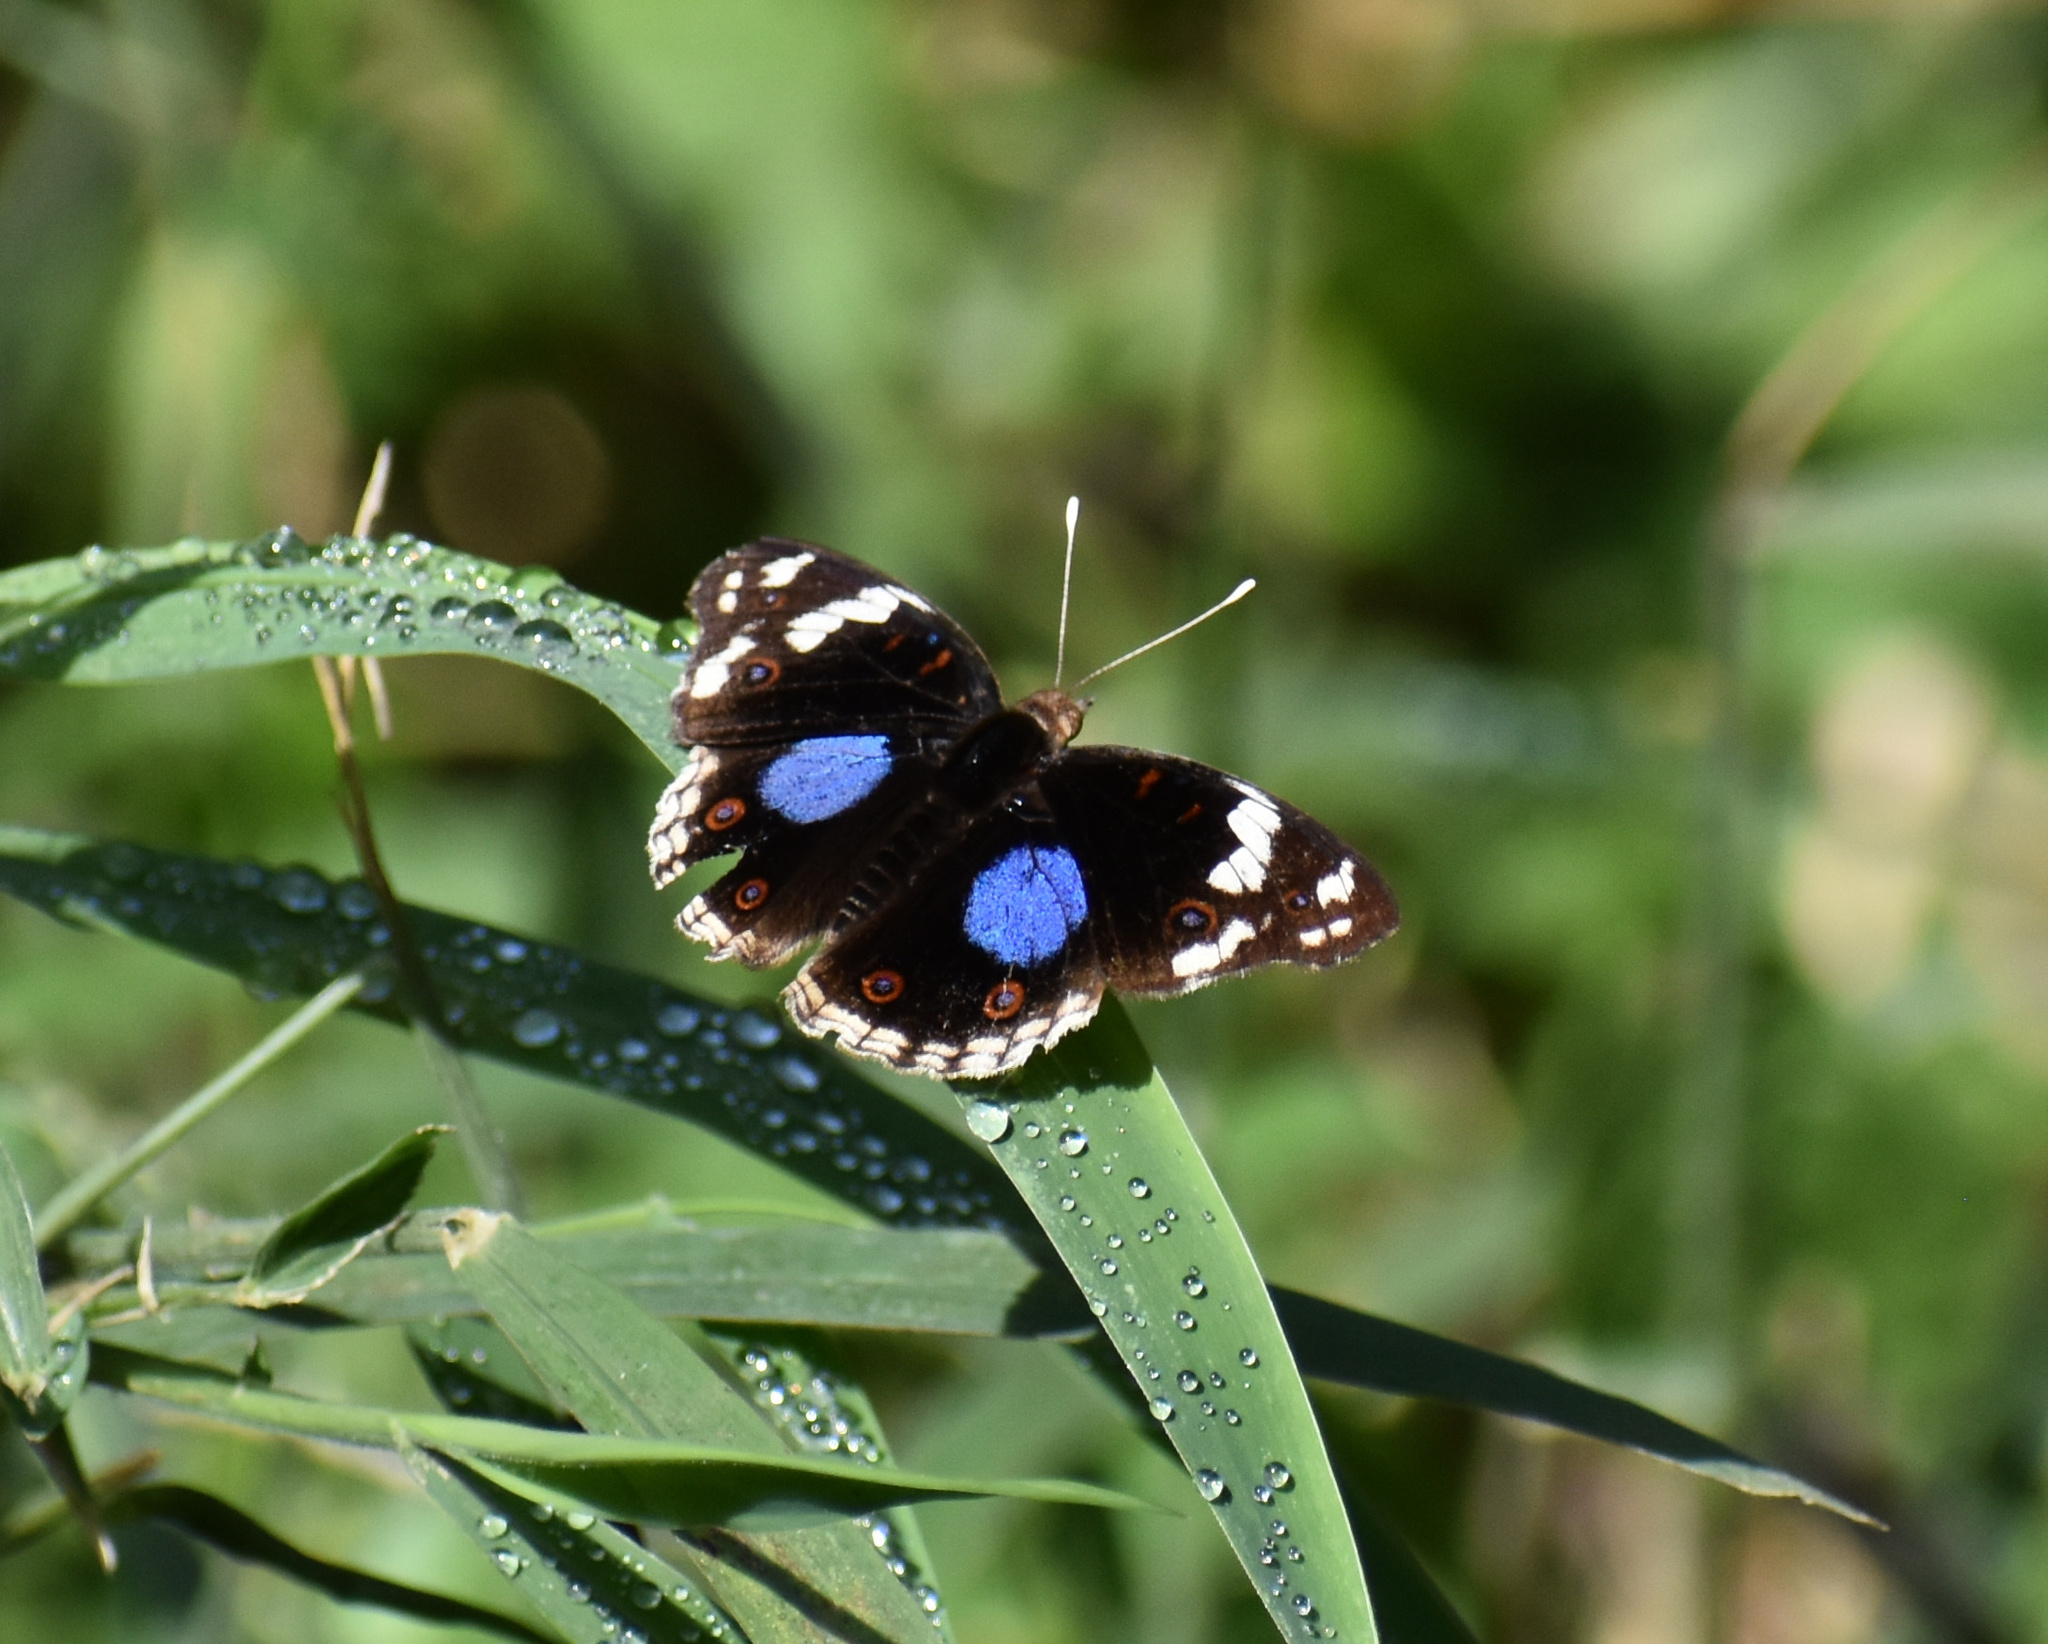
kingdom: Animalia
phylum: Arthropoda
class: Insecta
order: Lepidoptera
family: Nymphalidae
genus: Junonia
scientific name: Junonia oenone
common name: Dark blue pansy
